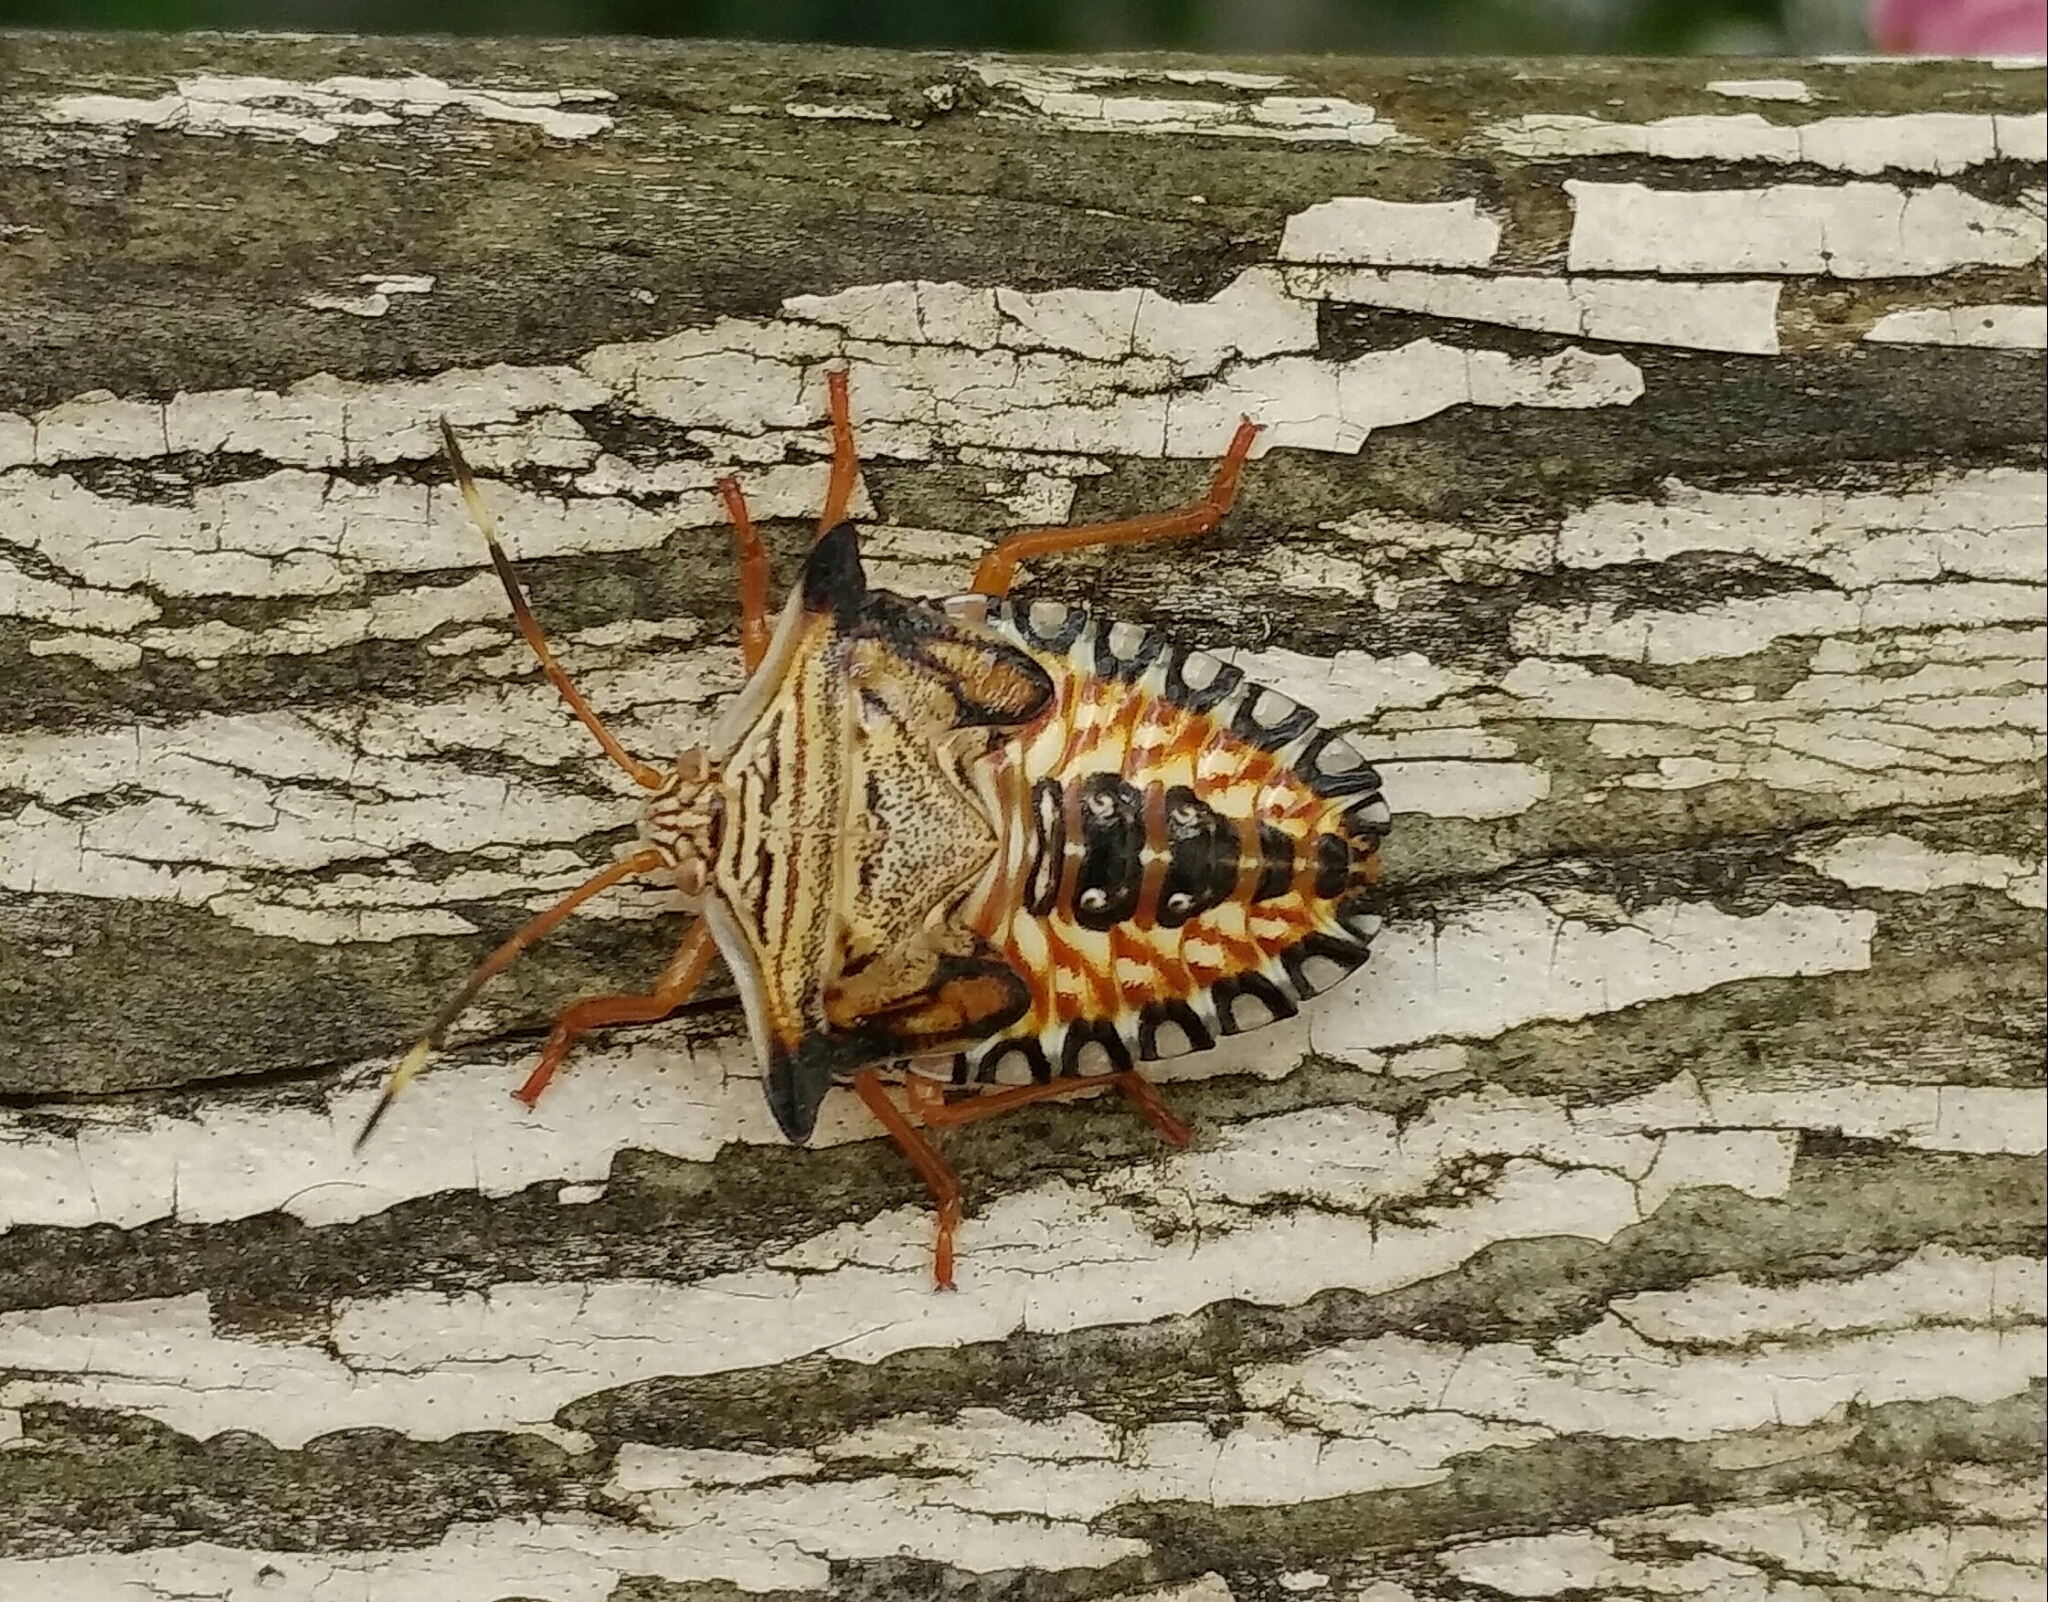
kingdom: Animalia
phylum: Arthropoda
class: Insecta
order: Hemiptera
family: Pentatomidae
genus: Edessa
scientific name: Edessa reticulata
